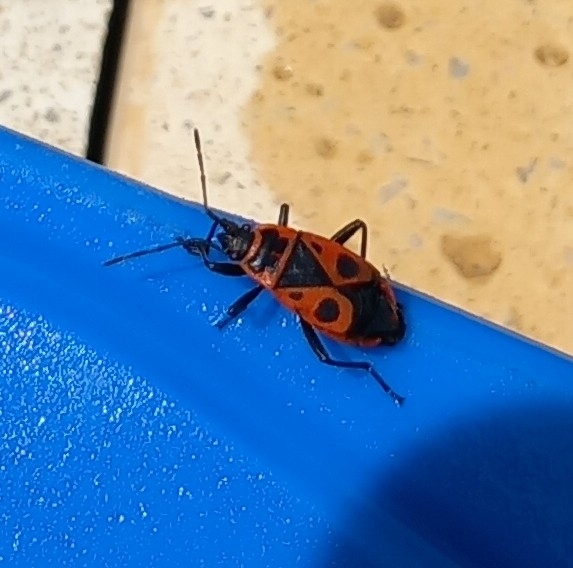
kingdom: Animalia
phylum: Arthropoda
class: Insecta
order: Hemiptera
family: Pyrrhocoridae
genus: Pyrrhocoris
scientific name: Pyrrhocoris apterus
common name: Firebug
